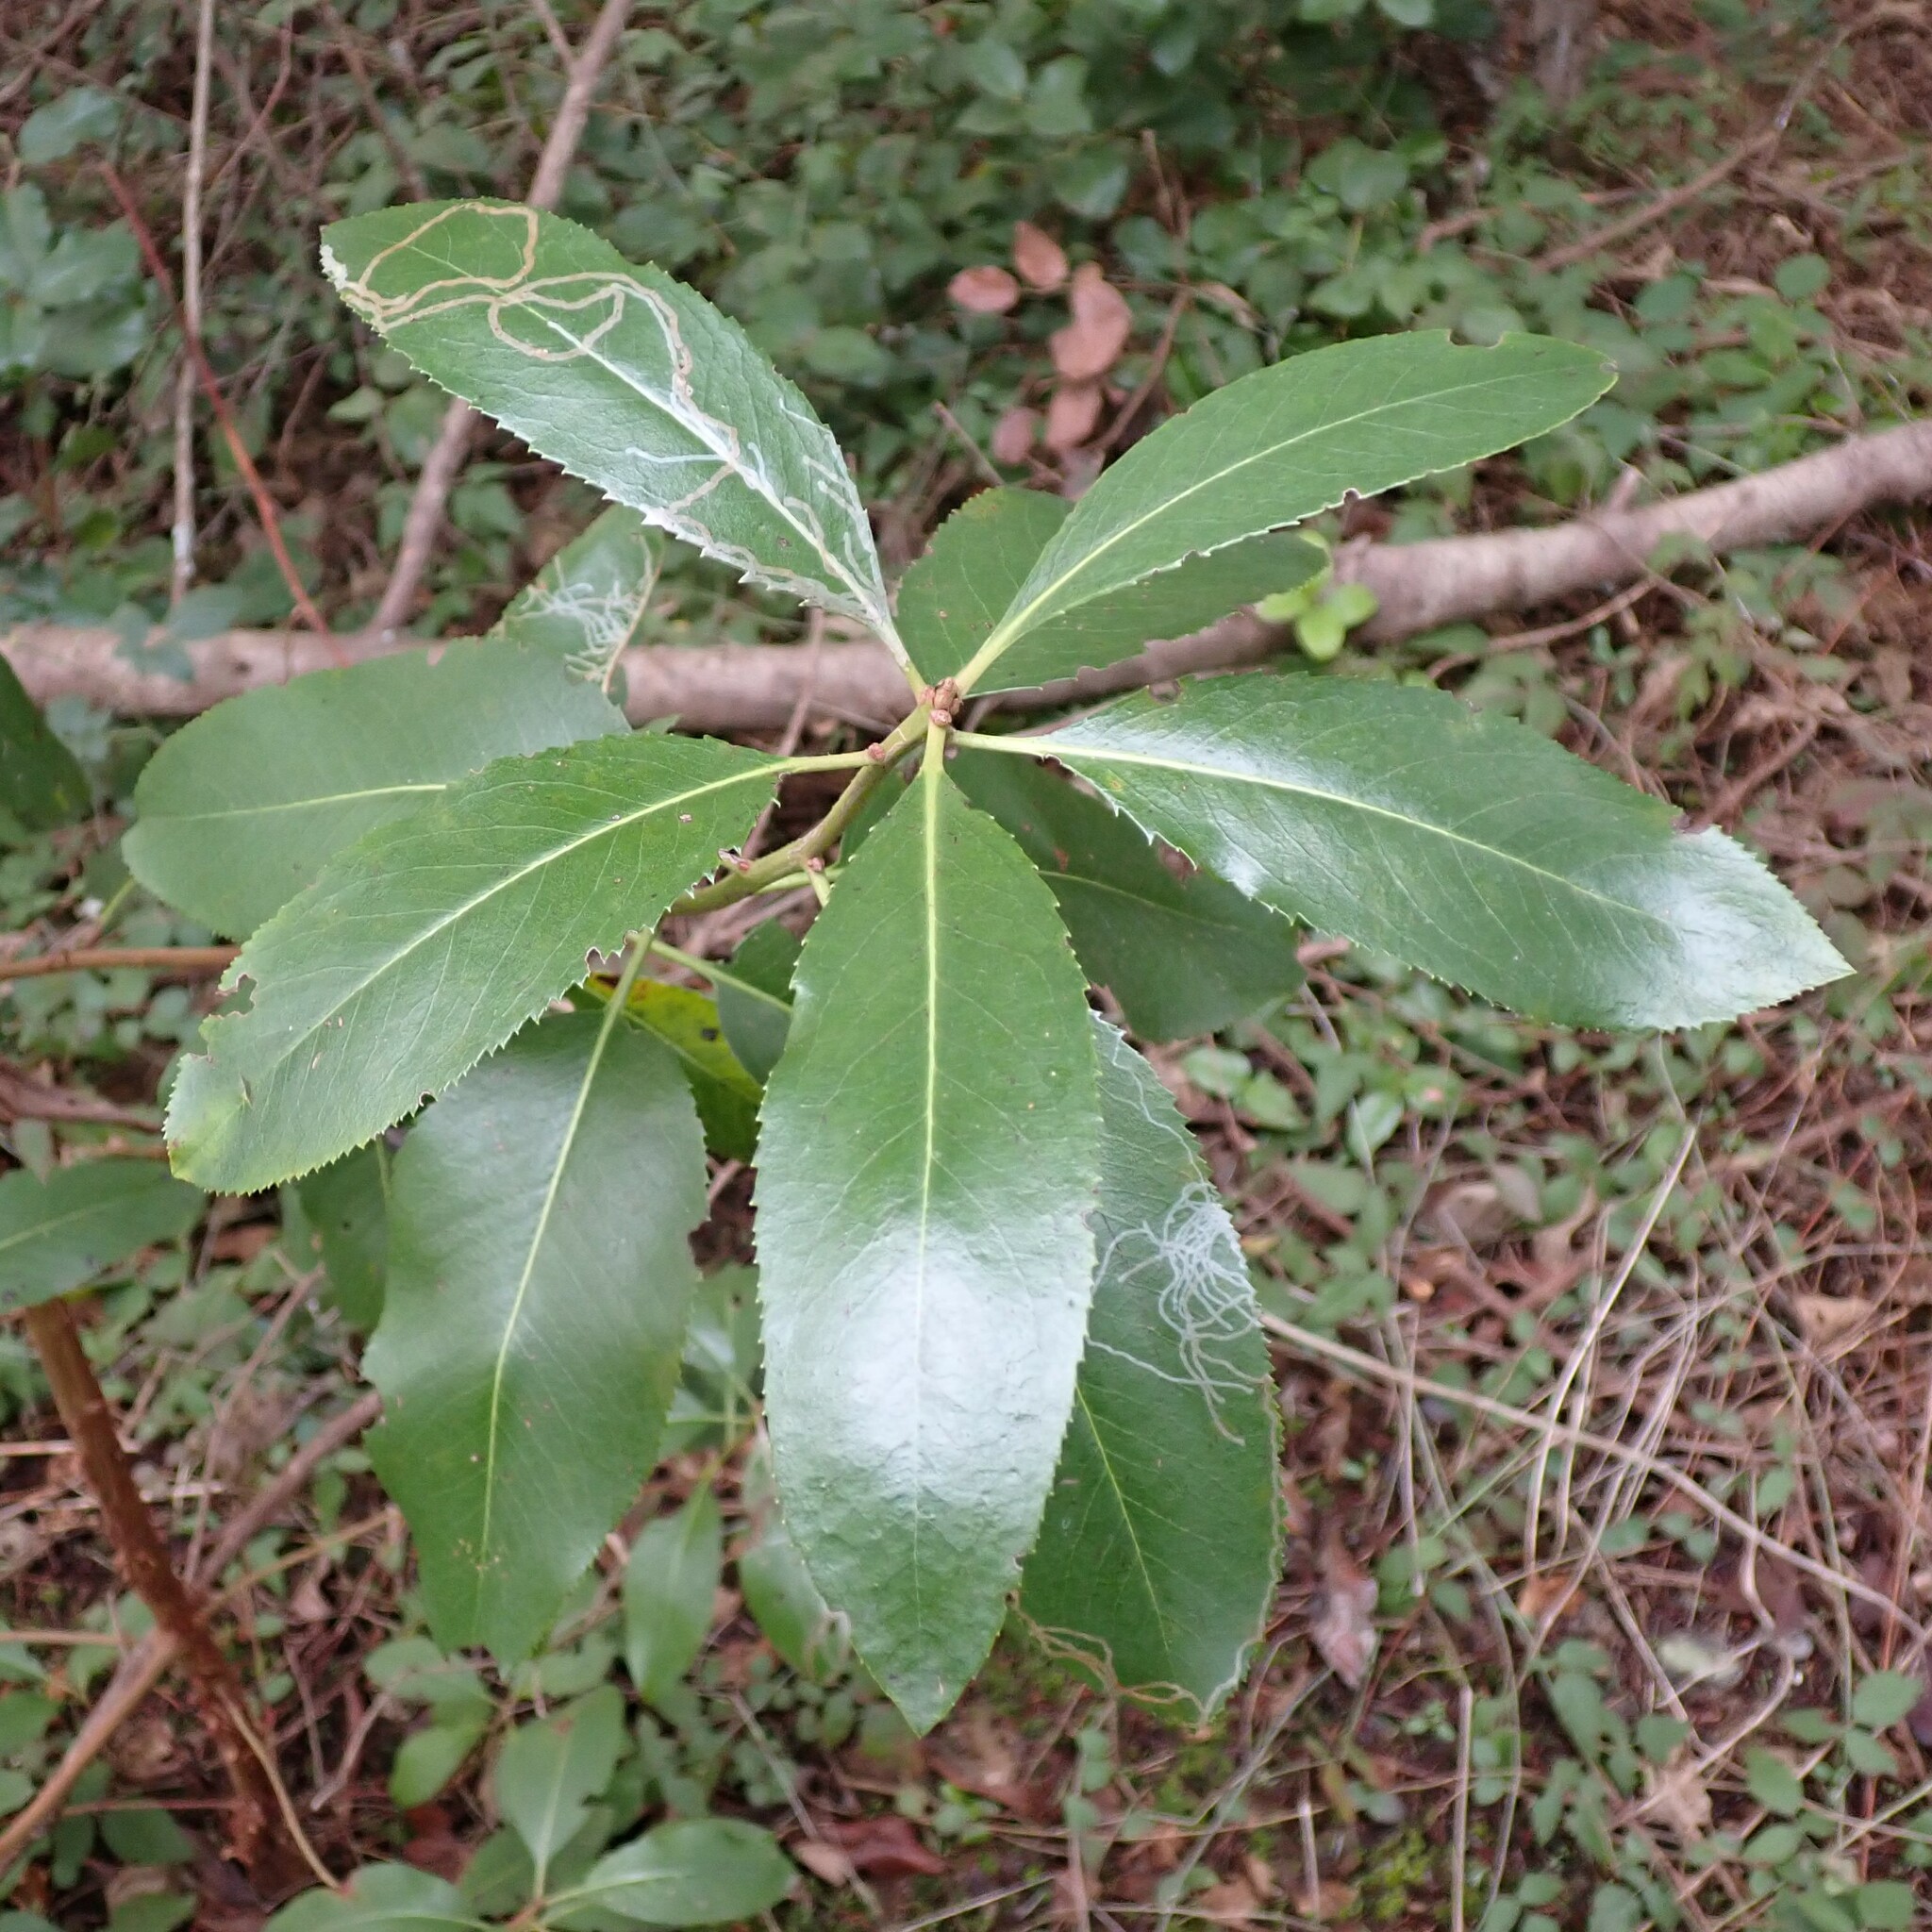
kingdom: Plantae
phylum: Tracheophyta
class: Magnoliopsida
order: Ericales
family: Ericaceae
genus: Arbutus
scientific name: Arbutus menziesii
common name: Pacific madrone
